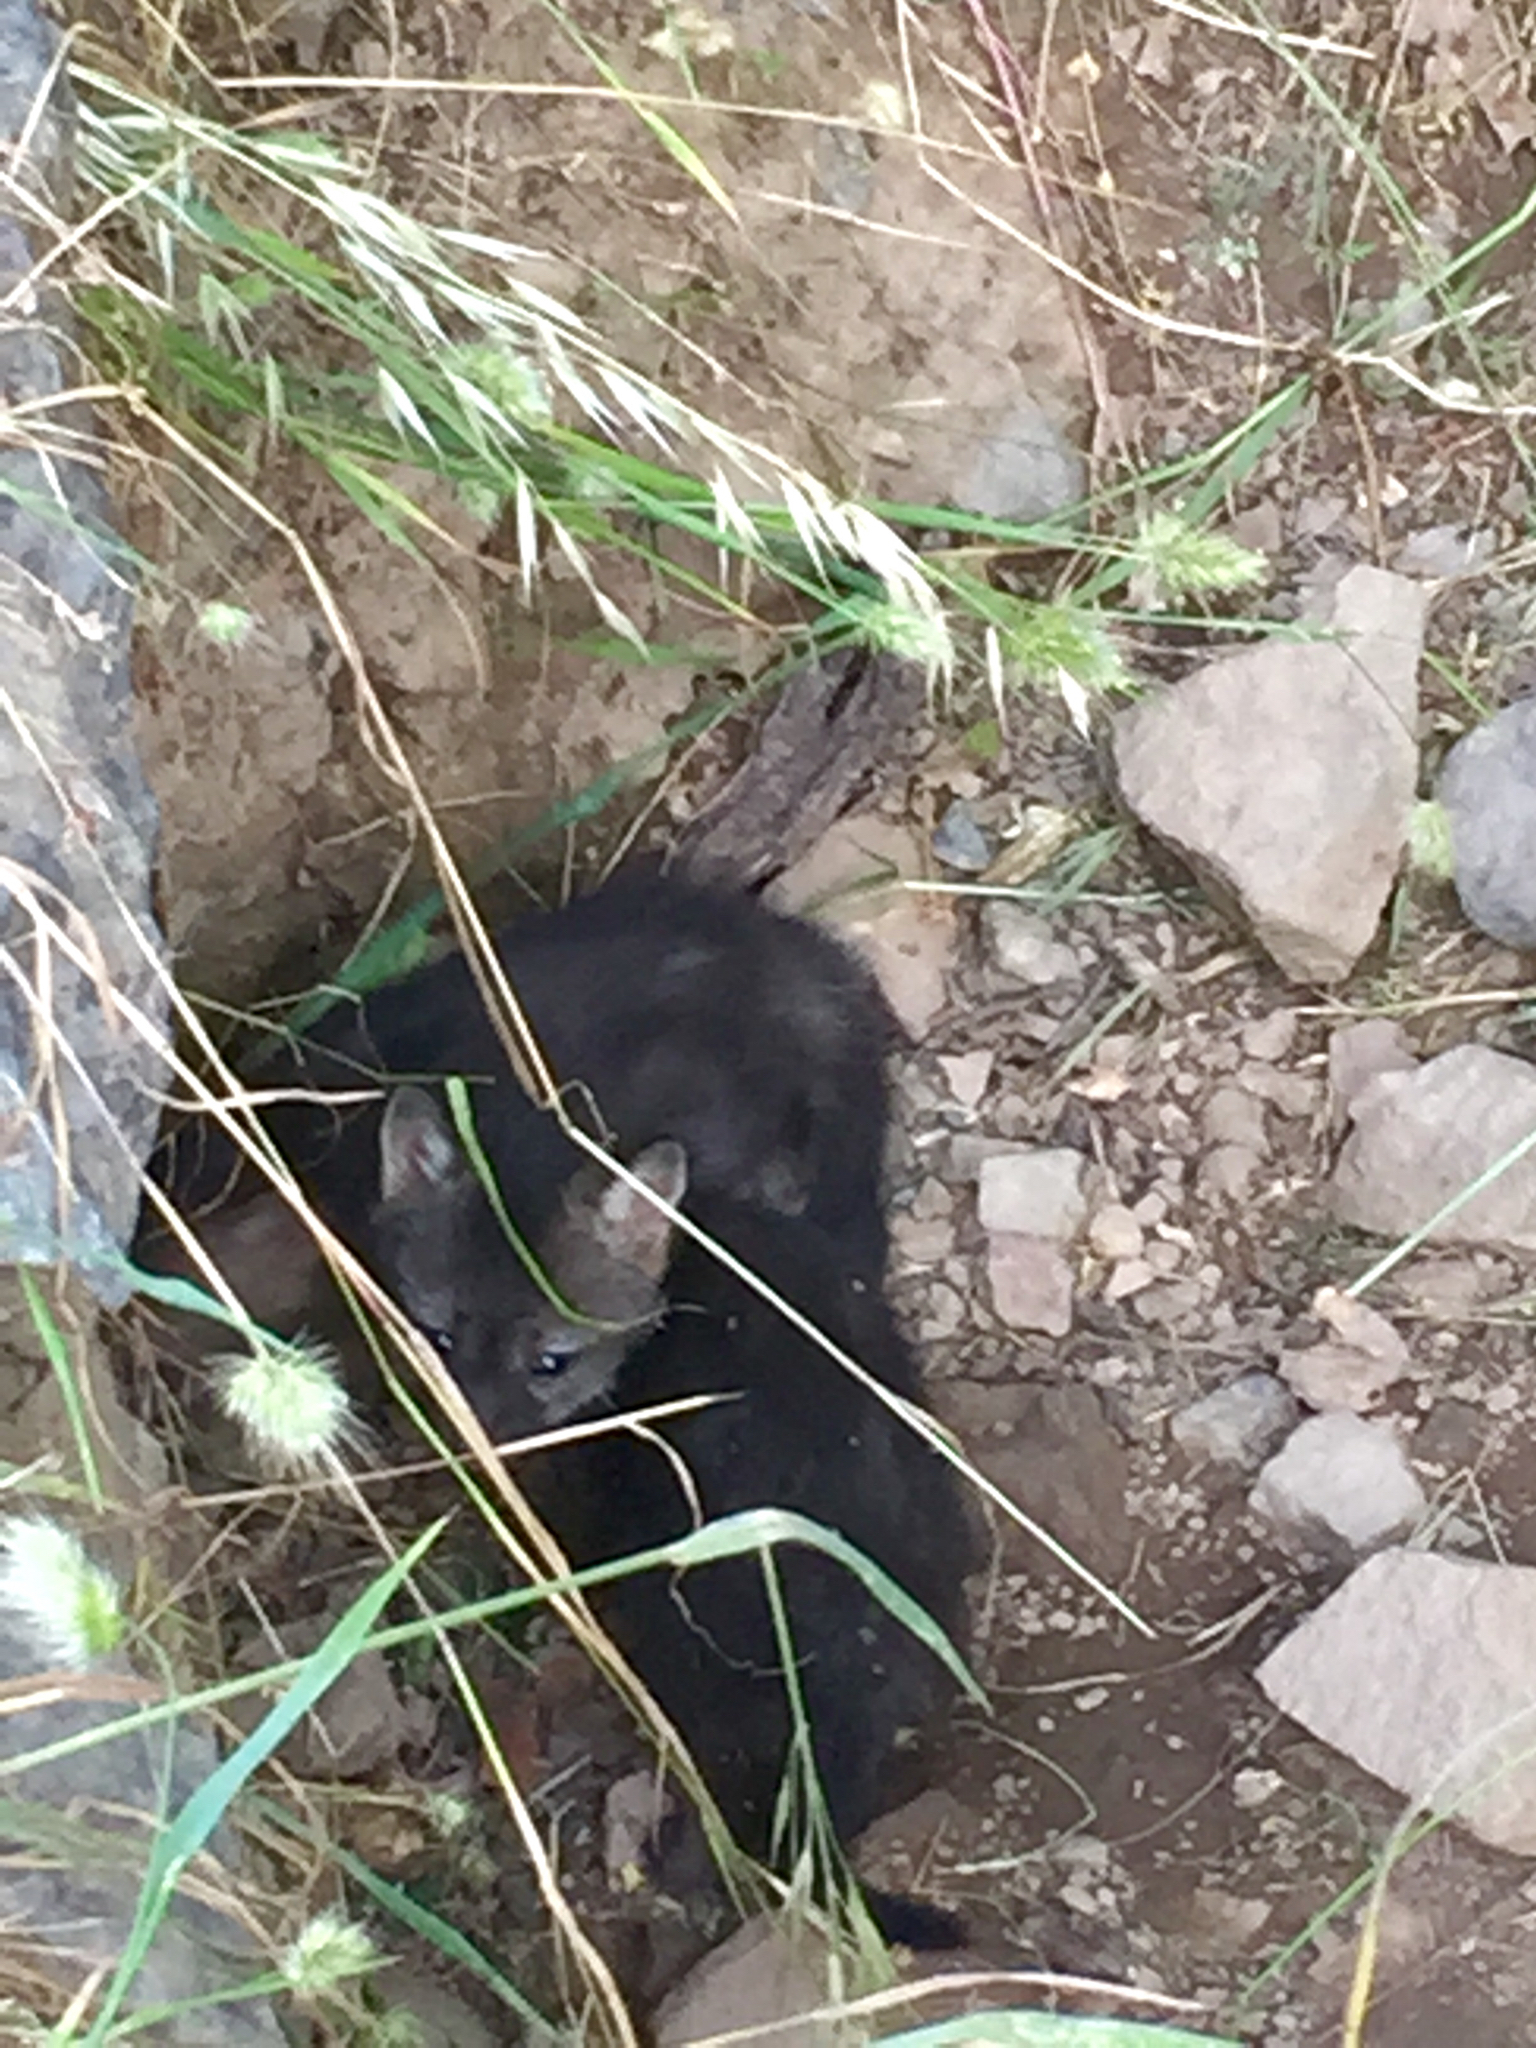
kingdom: Animalia
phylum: Chordata
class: Mammalia
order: Carnivora
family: Canidae
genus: Urocyon
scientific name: Urocyon cinereoargenteus
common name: Gray fox
